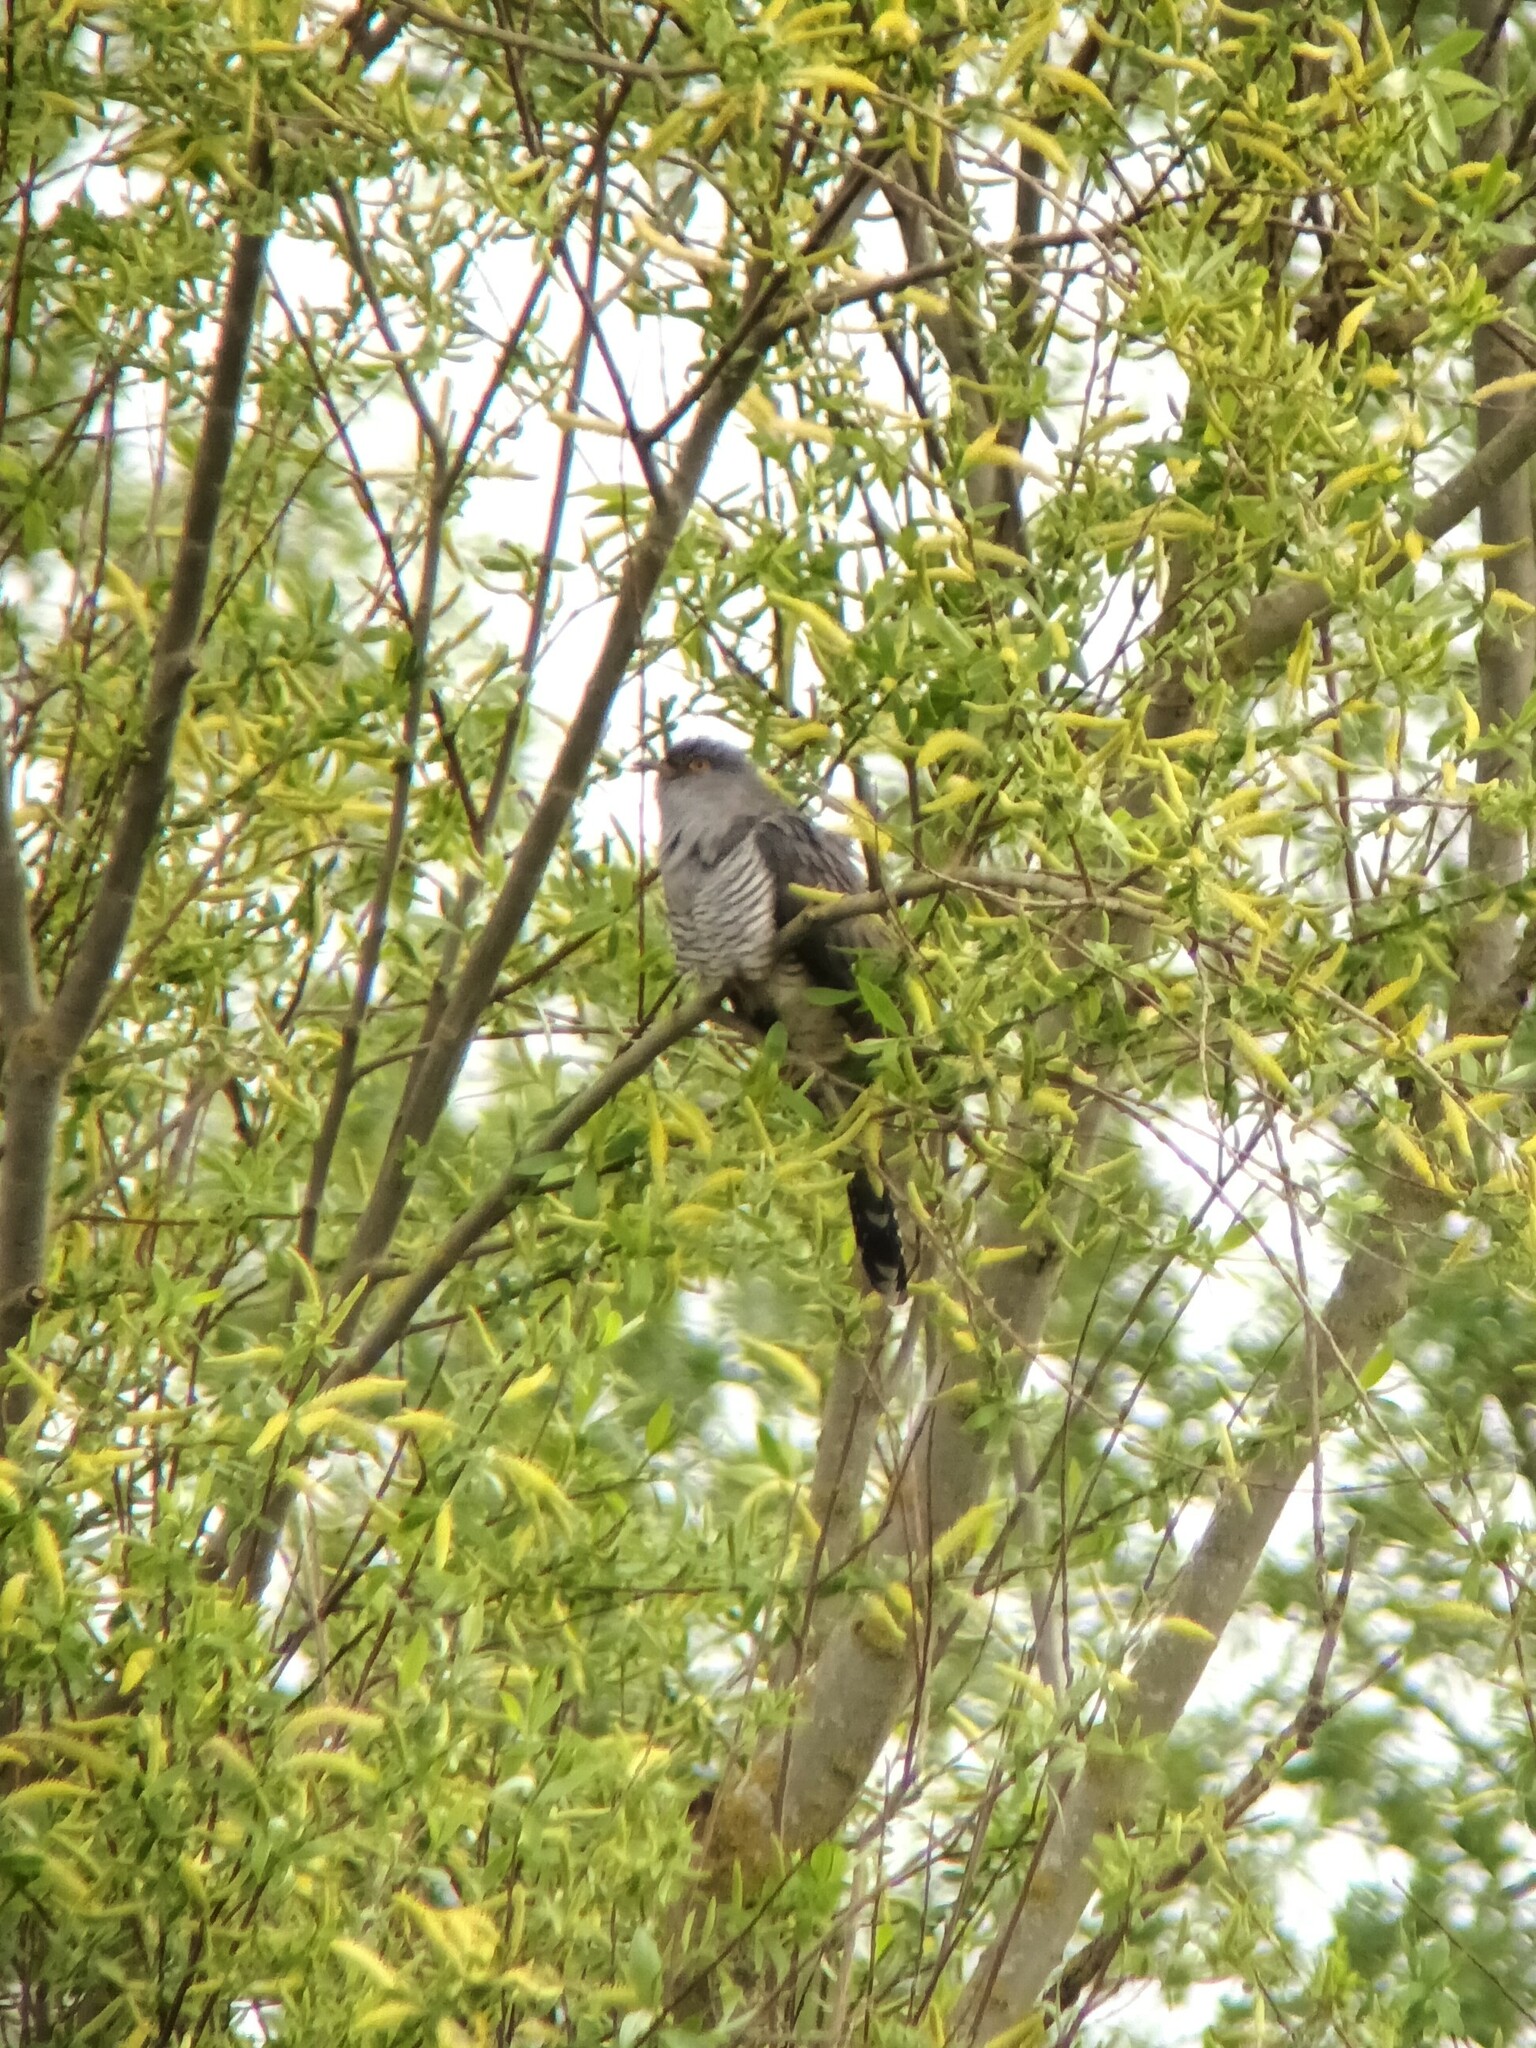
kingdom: Animalia
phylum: Chordata
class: Aves
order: Cuculiformes
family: Cuculidae
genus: Cuculus
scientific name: Cuculus canorus
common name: Common cuckoo
